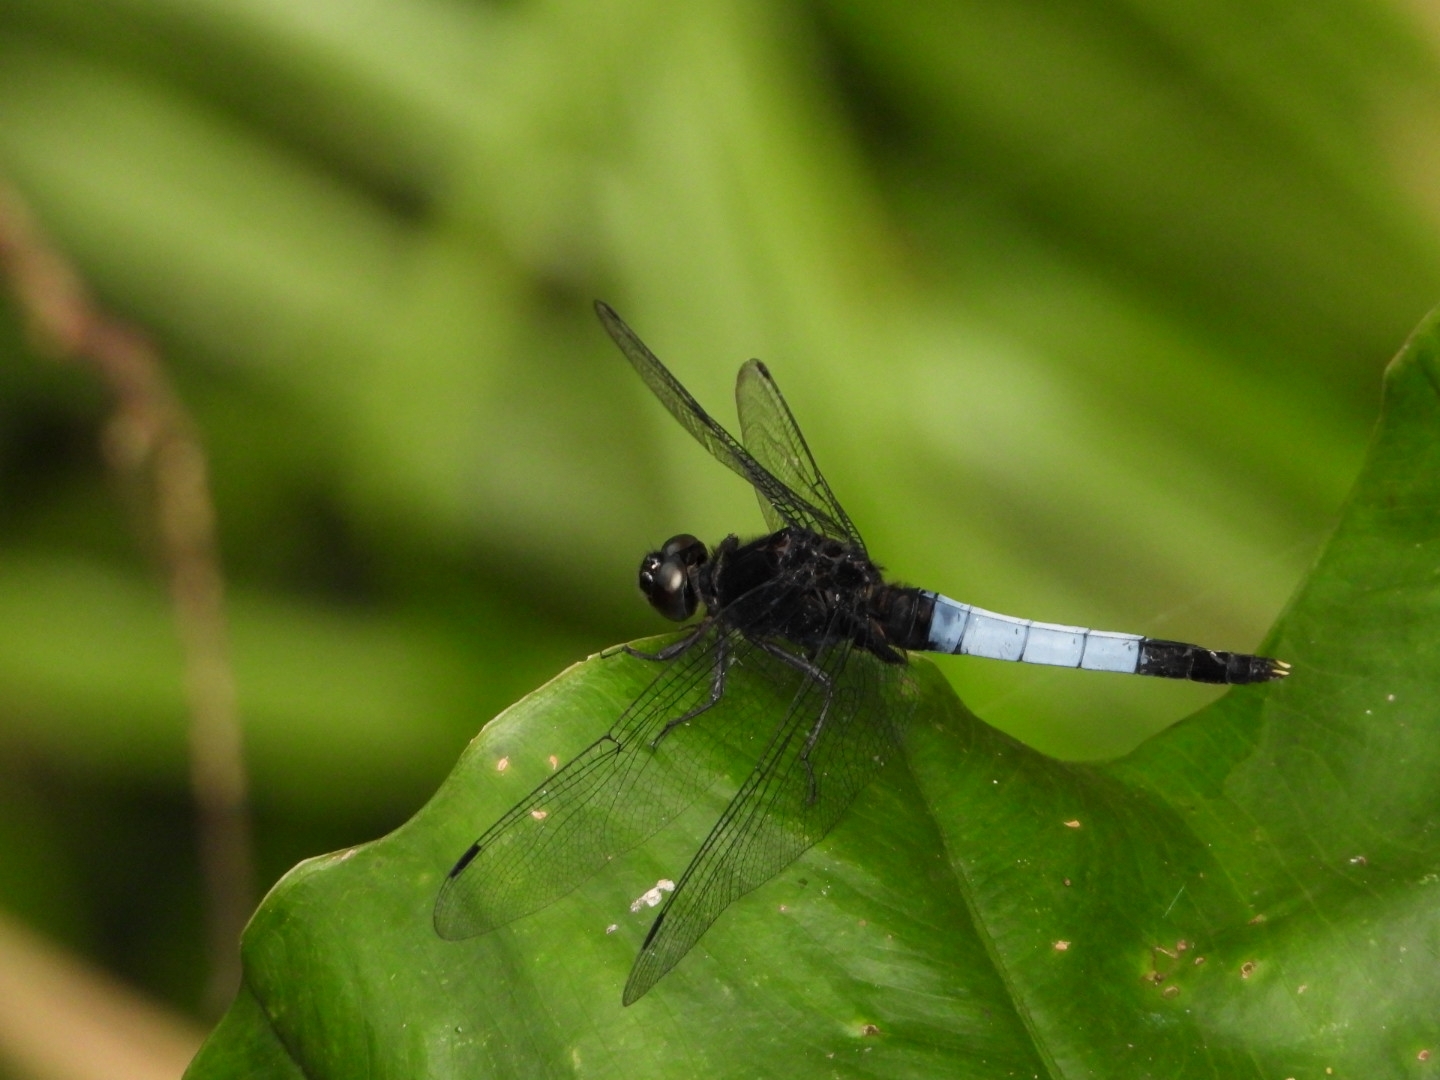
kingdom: Animalia
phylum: Arthropoda
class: Insecta
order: Odonata
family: Libellulidae
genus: Orthetrum
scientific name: Orthetrum triangulare
